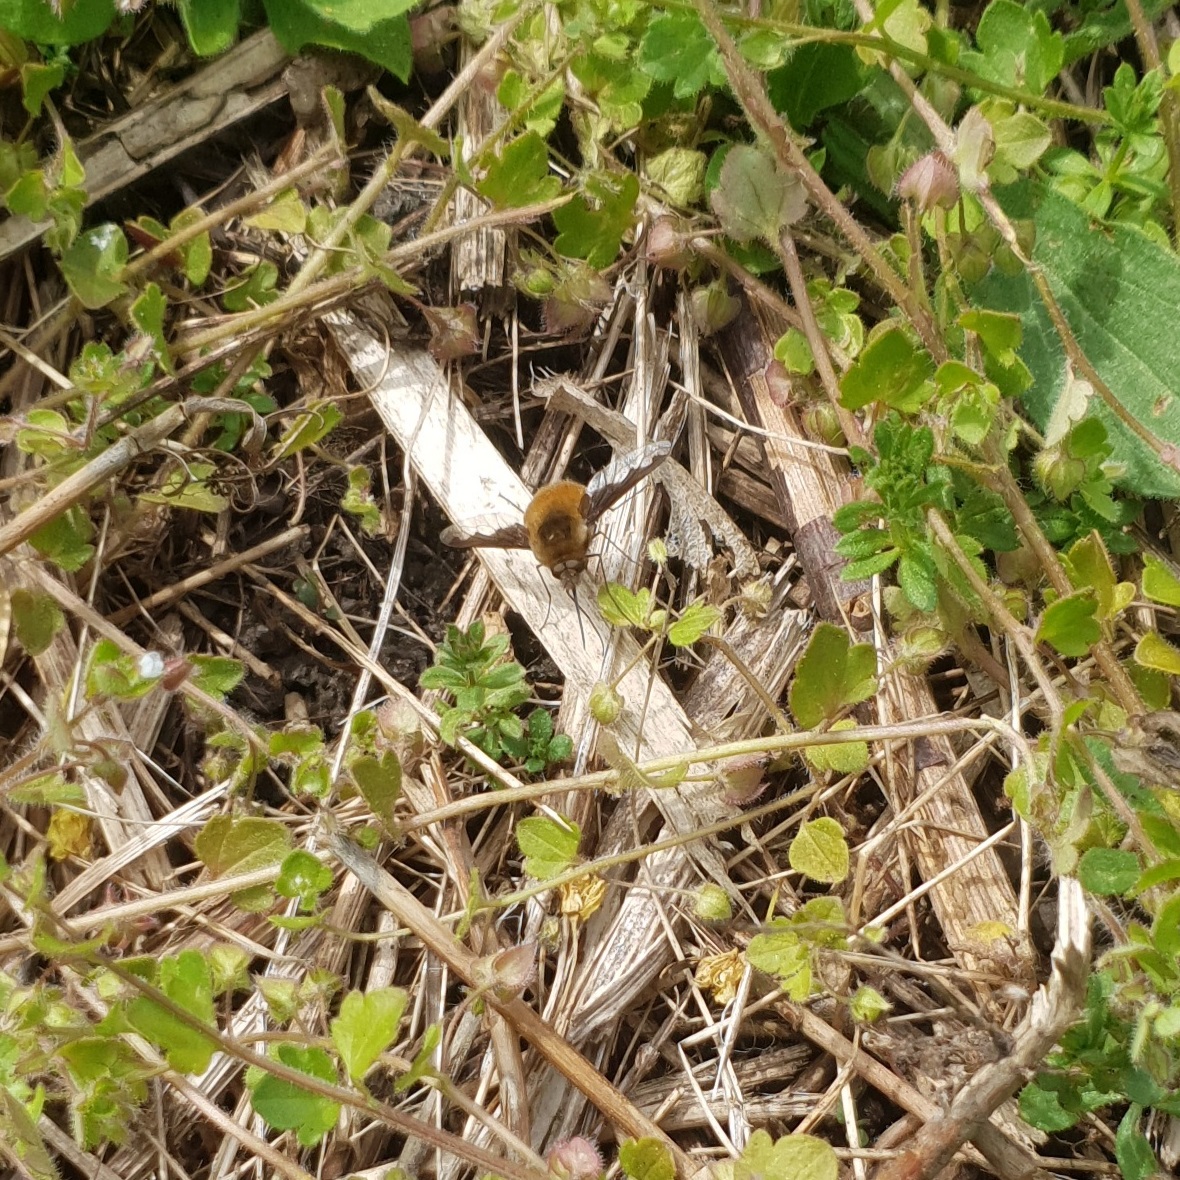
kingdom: Animalia
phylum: Arthropoda
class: Insecta
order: Diptera
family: Bombyliidae
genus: Bombylius
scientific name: Bombylius major
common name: Bee fly
